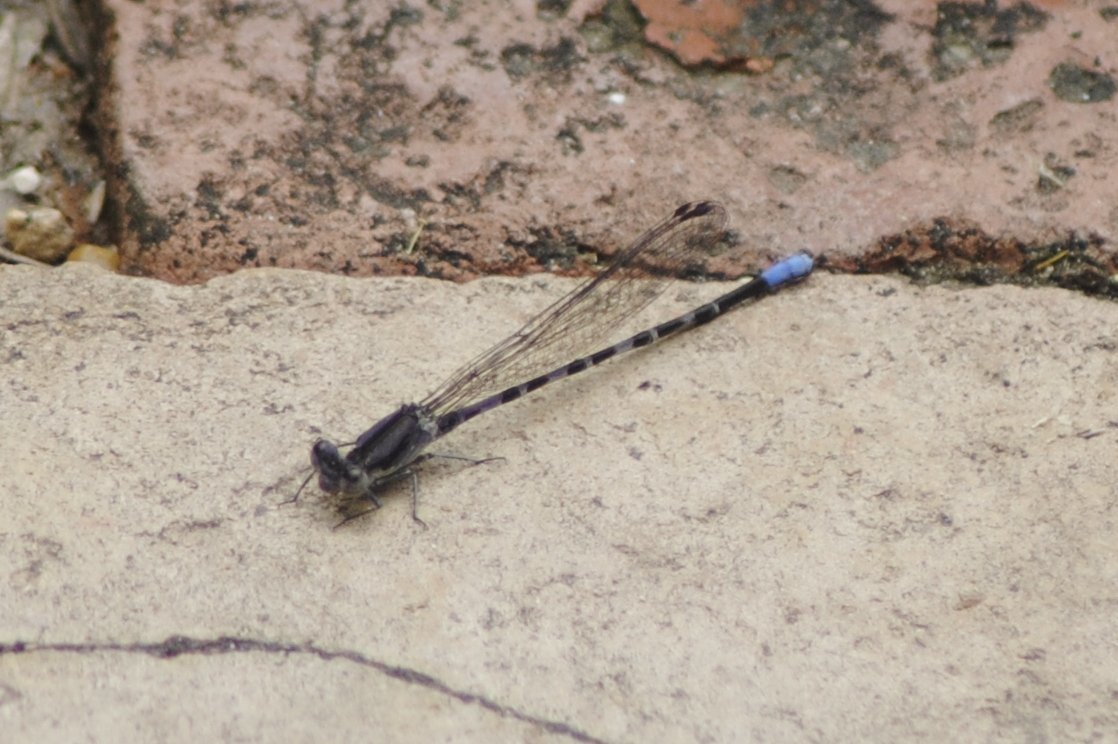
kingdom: Animalia
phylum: Arthropoda
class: Insecta
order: Odonata
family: Coenagrionidae
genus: Argia
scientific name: Argia immunda
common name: Kiowa dancer
